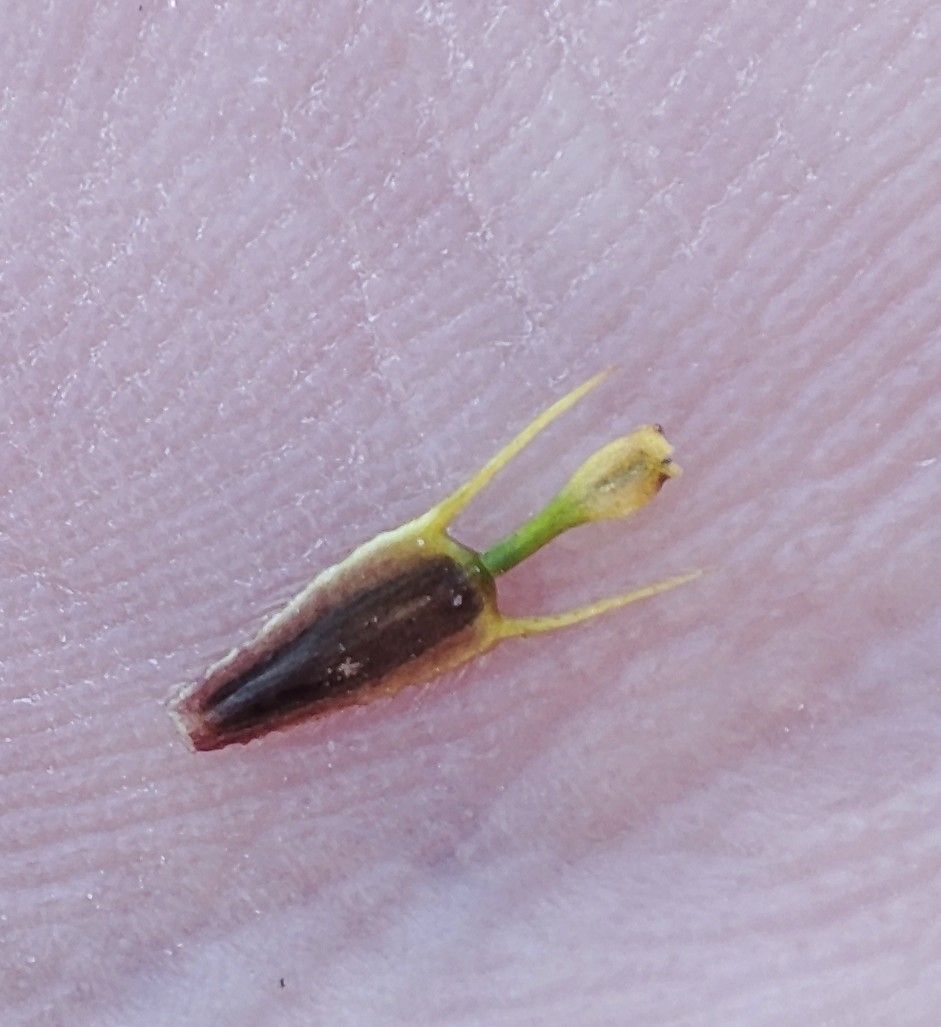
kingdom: Plantae
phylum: Tracheophyta
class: Magnoliopsida
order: Asterales
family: Asteraceae
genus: Bidens
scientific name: Bidens radiata
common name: Radiating bur-marigold
